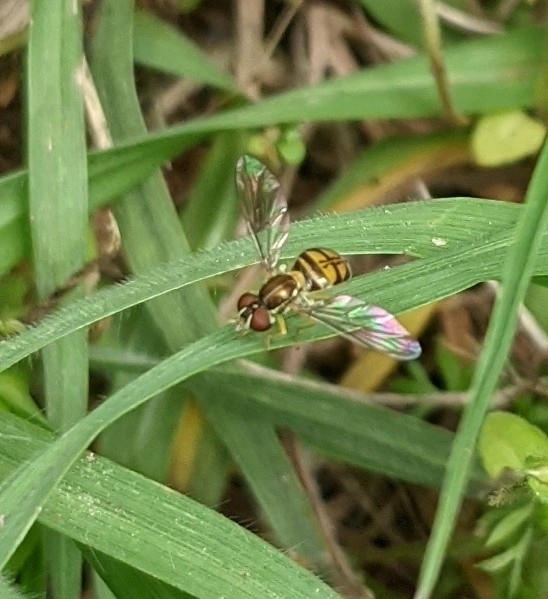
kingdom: Animalia
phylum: Arthropoda
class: Insecta
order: Diptera
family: Syrphidae
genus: Toxomerus
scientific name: Toxomerus marginatus
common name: Syrphid fly
